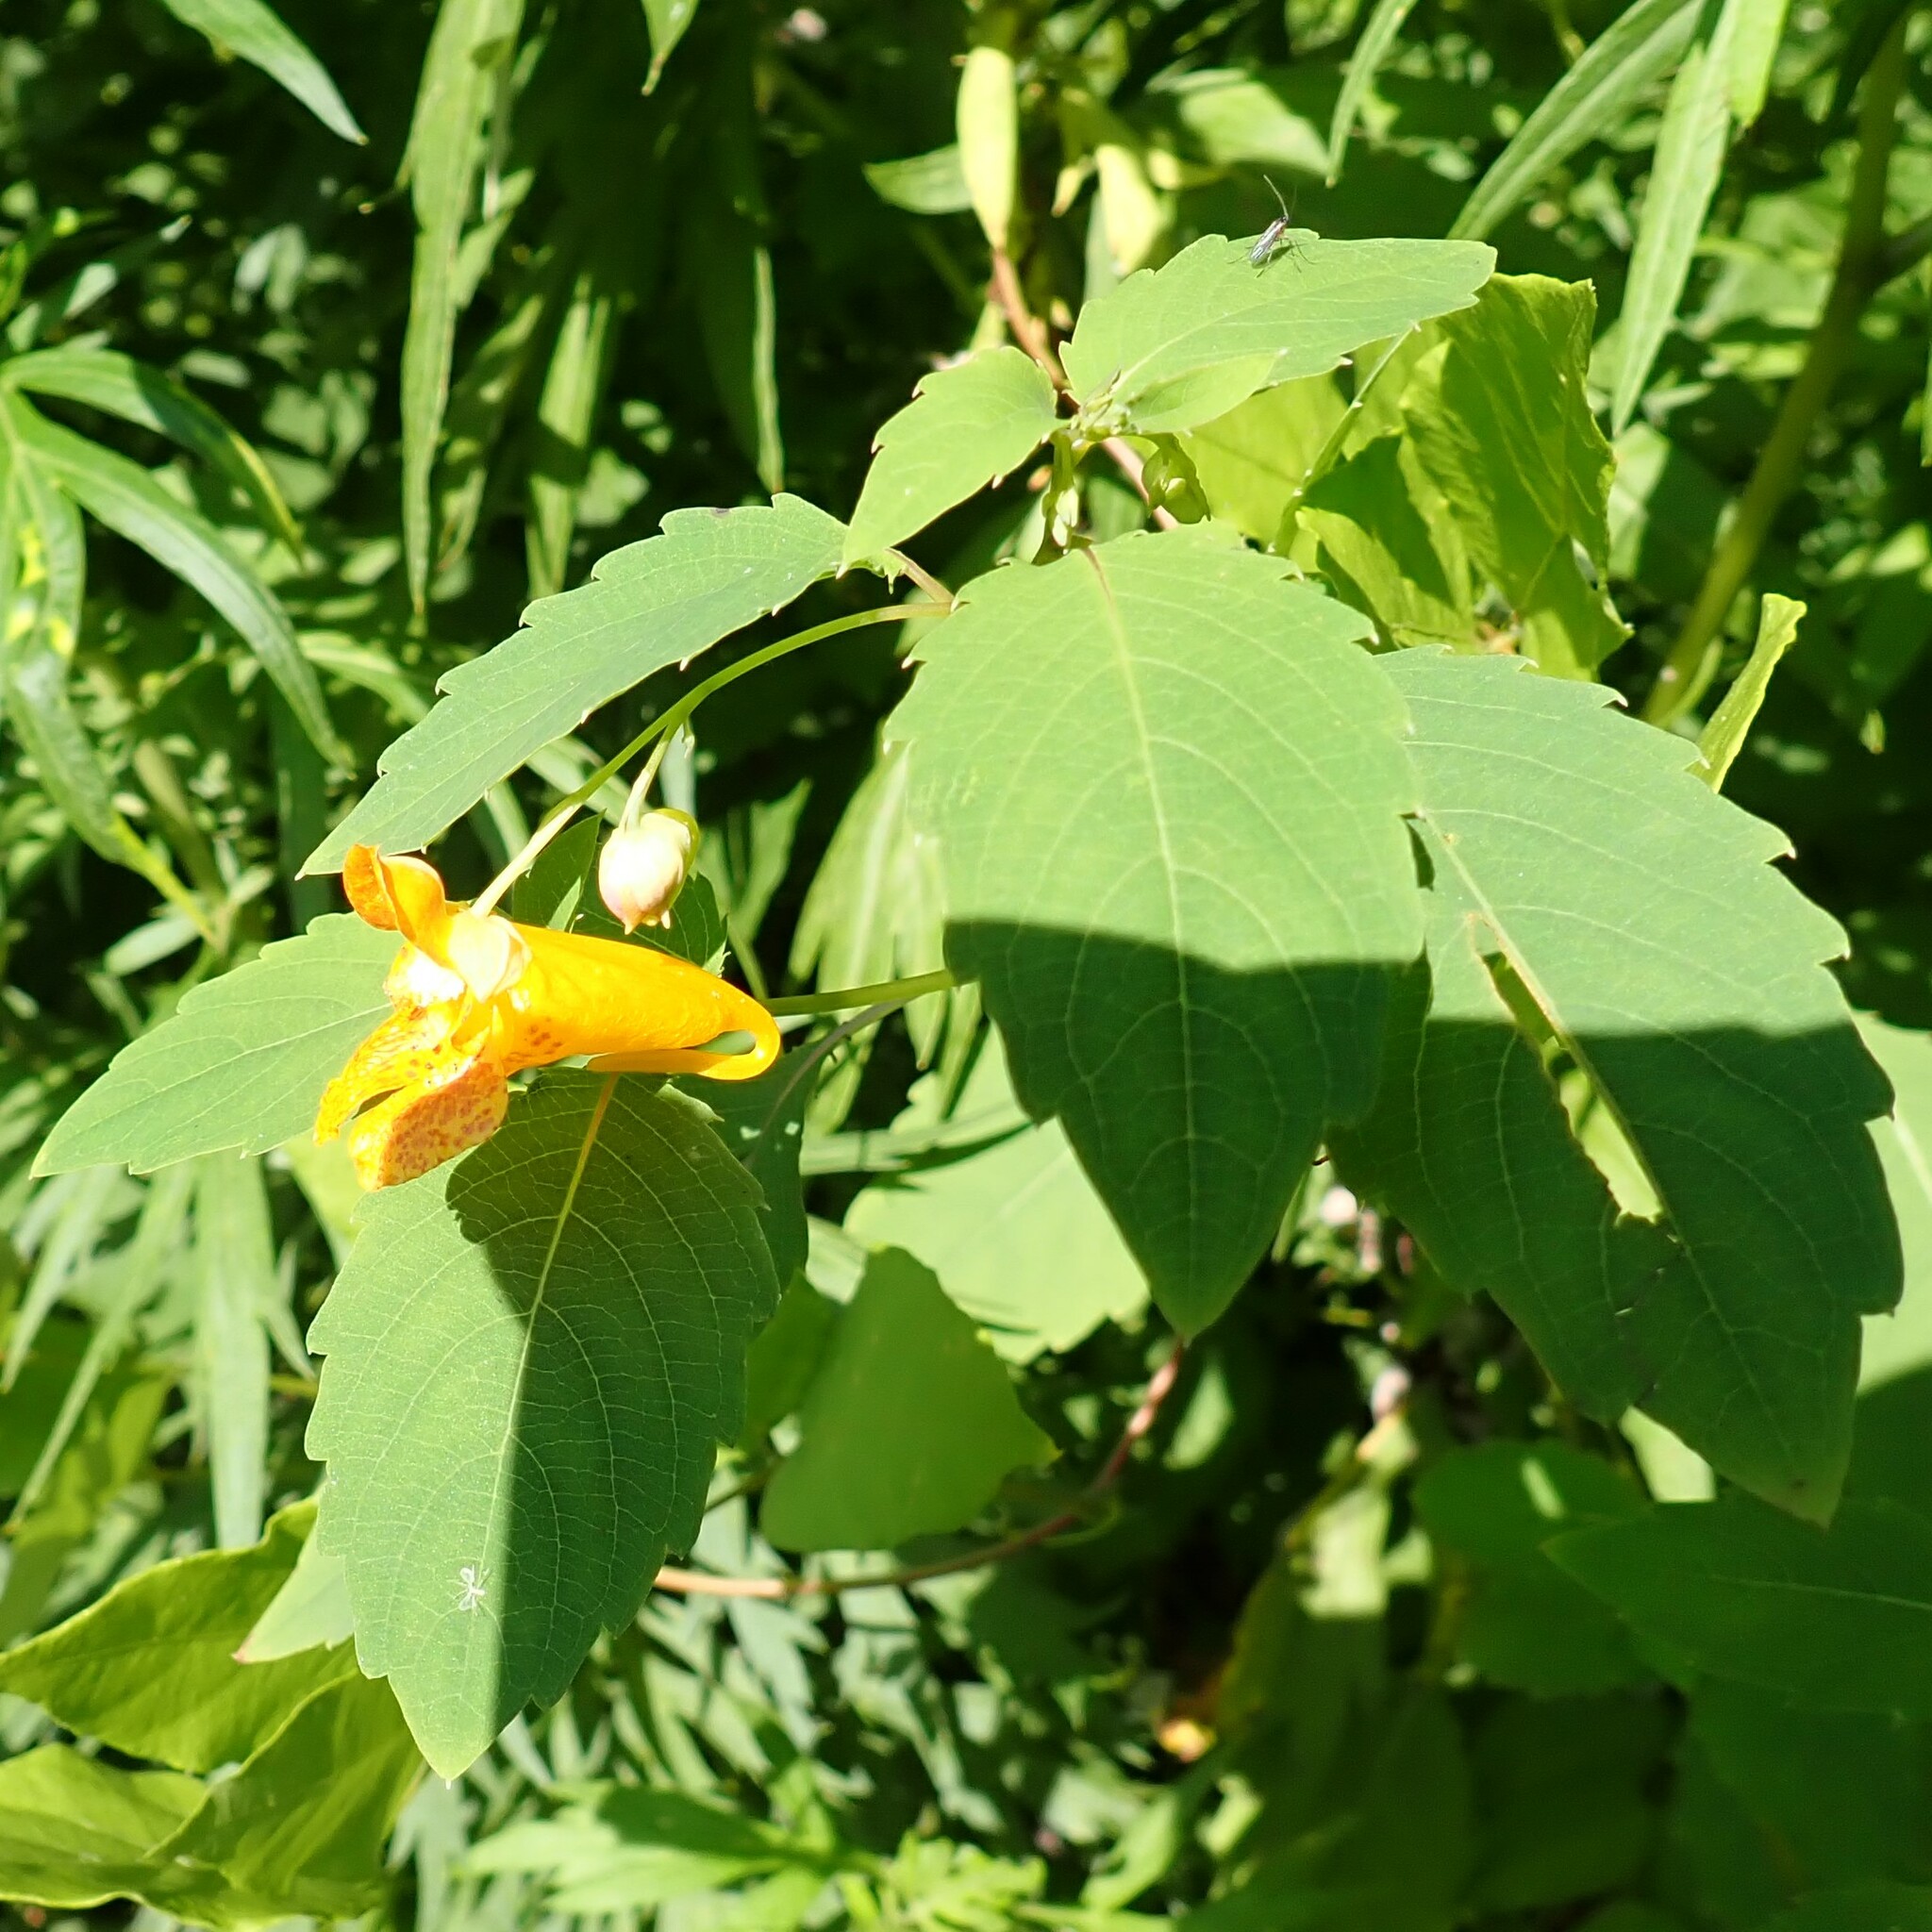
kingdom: Plantae
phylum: Tracheophyta
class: Magnoliopsida
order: Ericales
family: Balsaminaceae
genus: Impatiens
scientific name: Impatiens capensis
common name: Orange balsam
